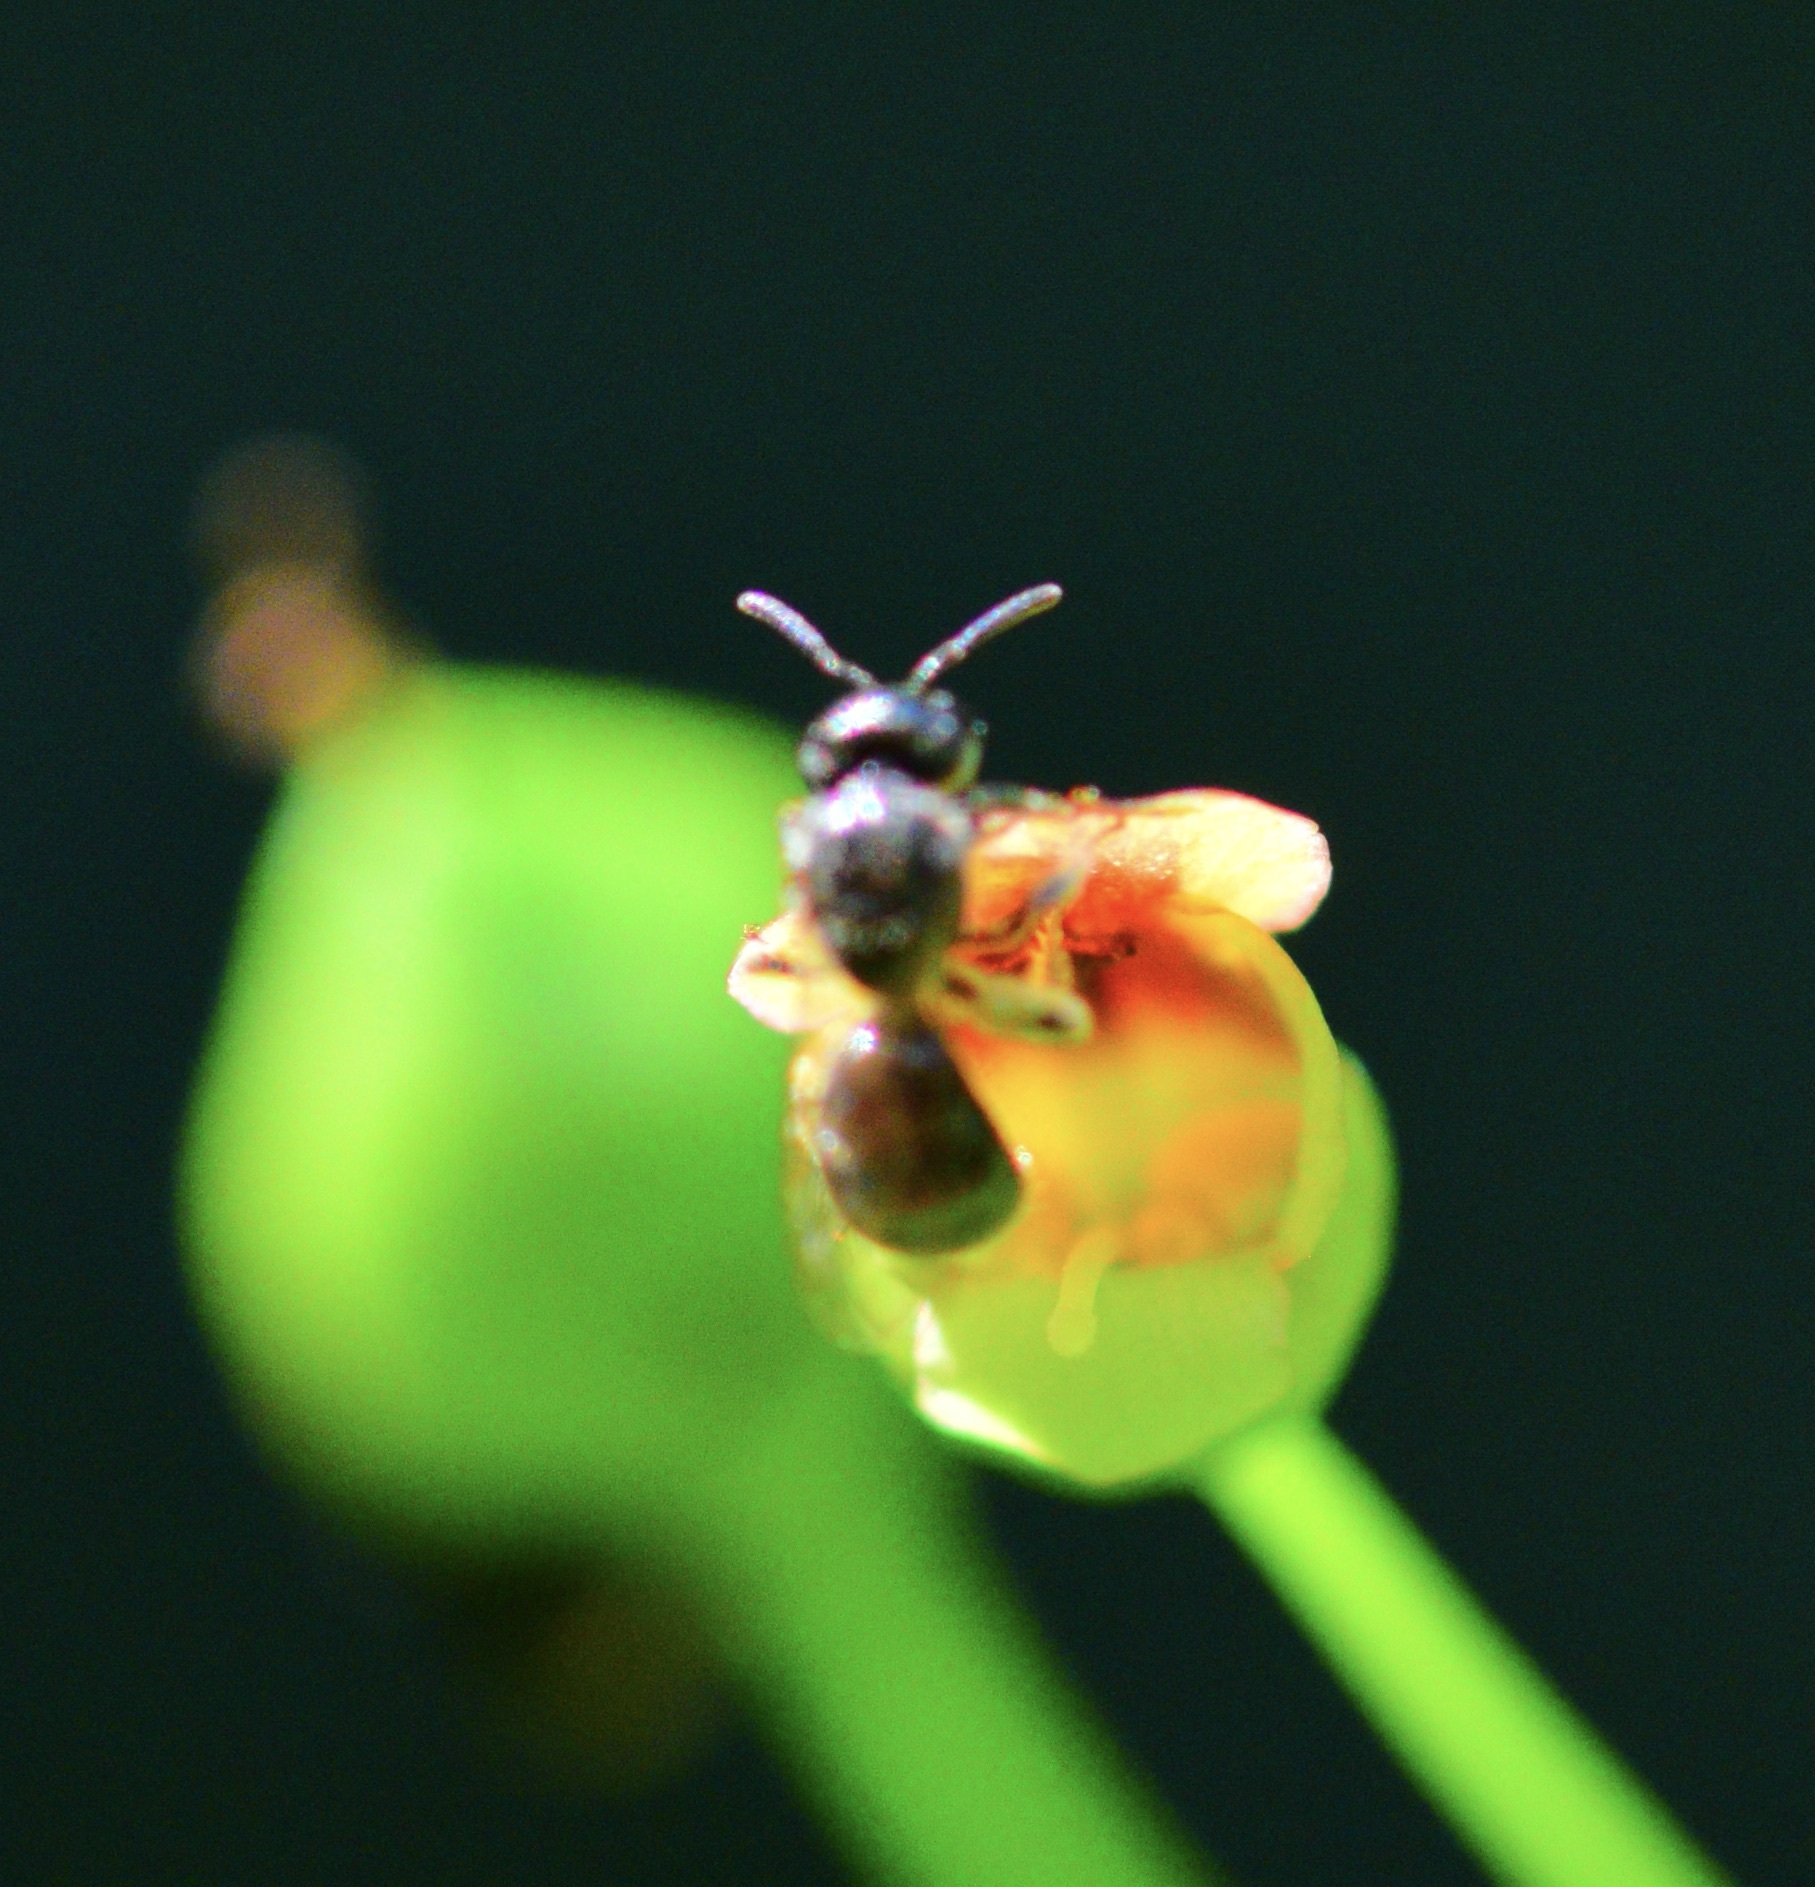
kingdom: Animalia
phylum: Arthropoda
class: Insecta
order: Hymenoptera
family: Halictidae
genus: Lasioglossum
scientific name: Lasioglossum imitatum
